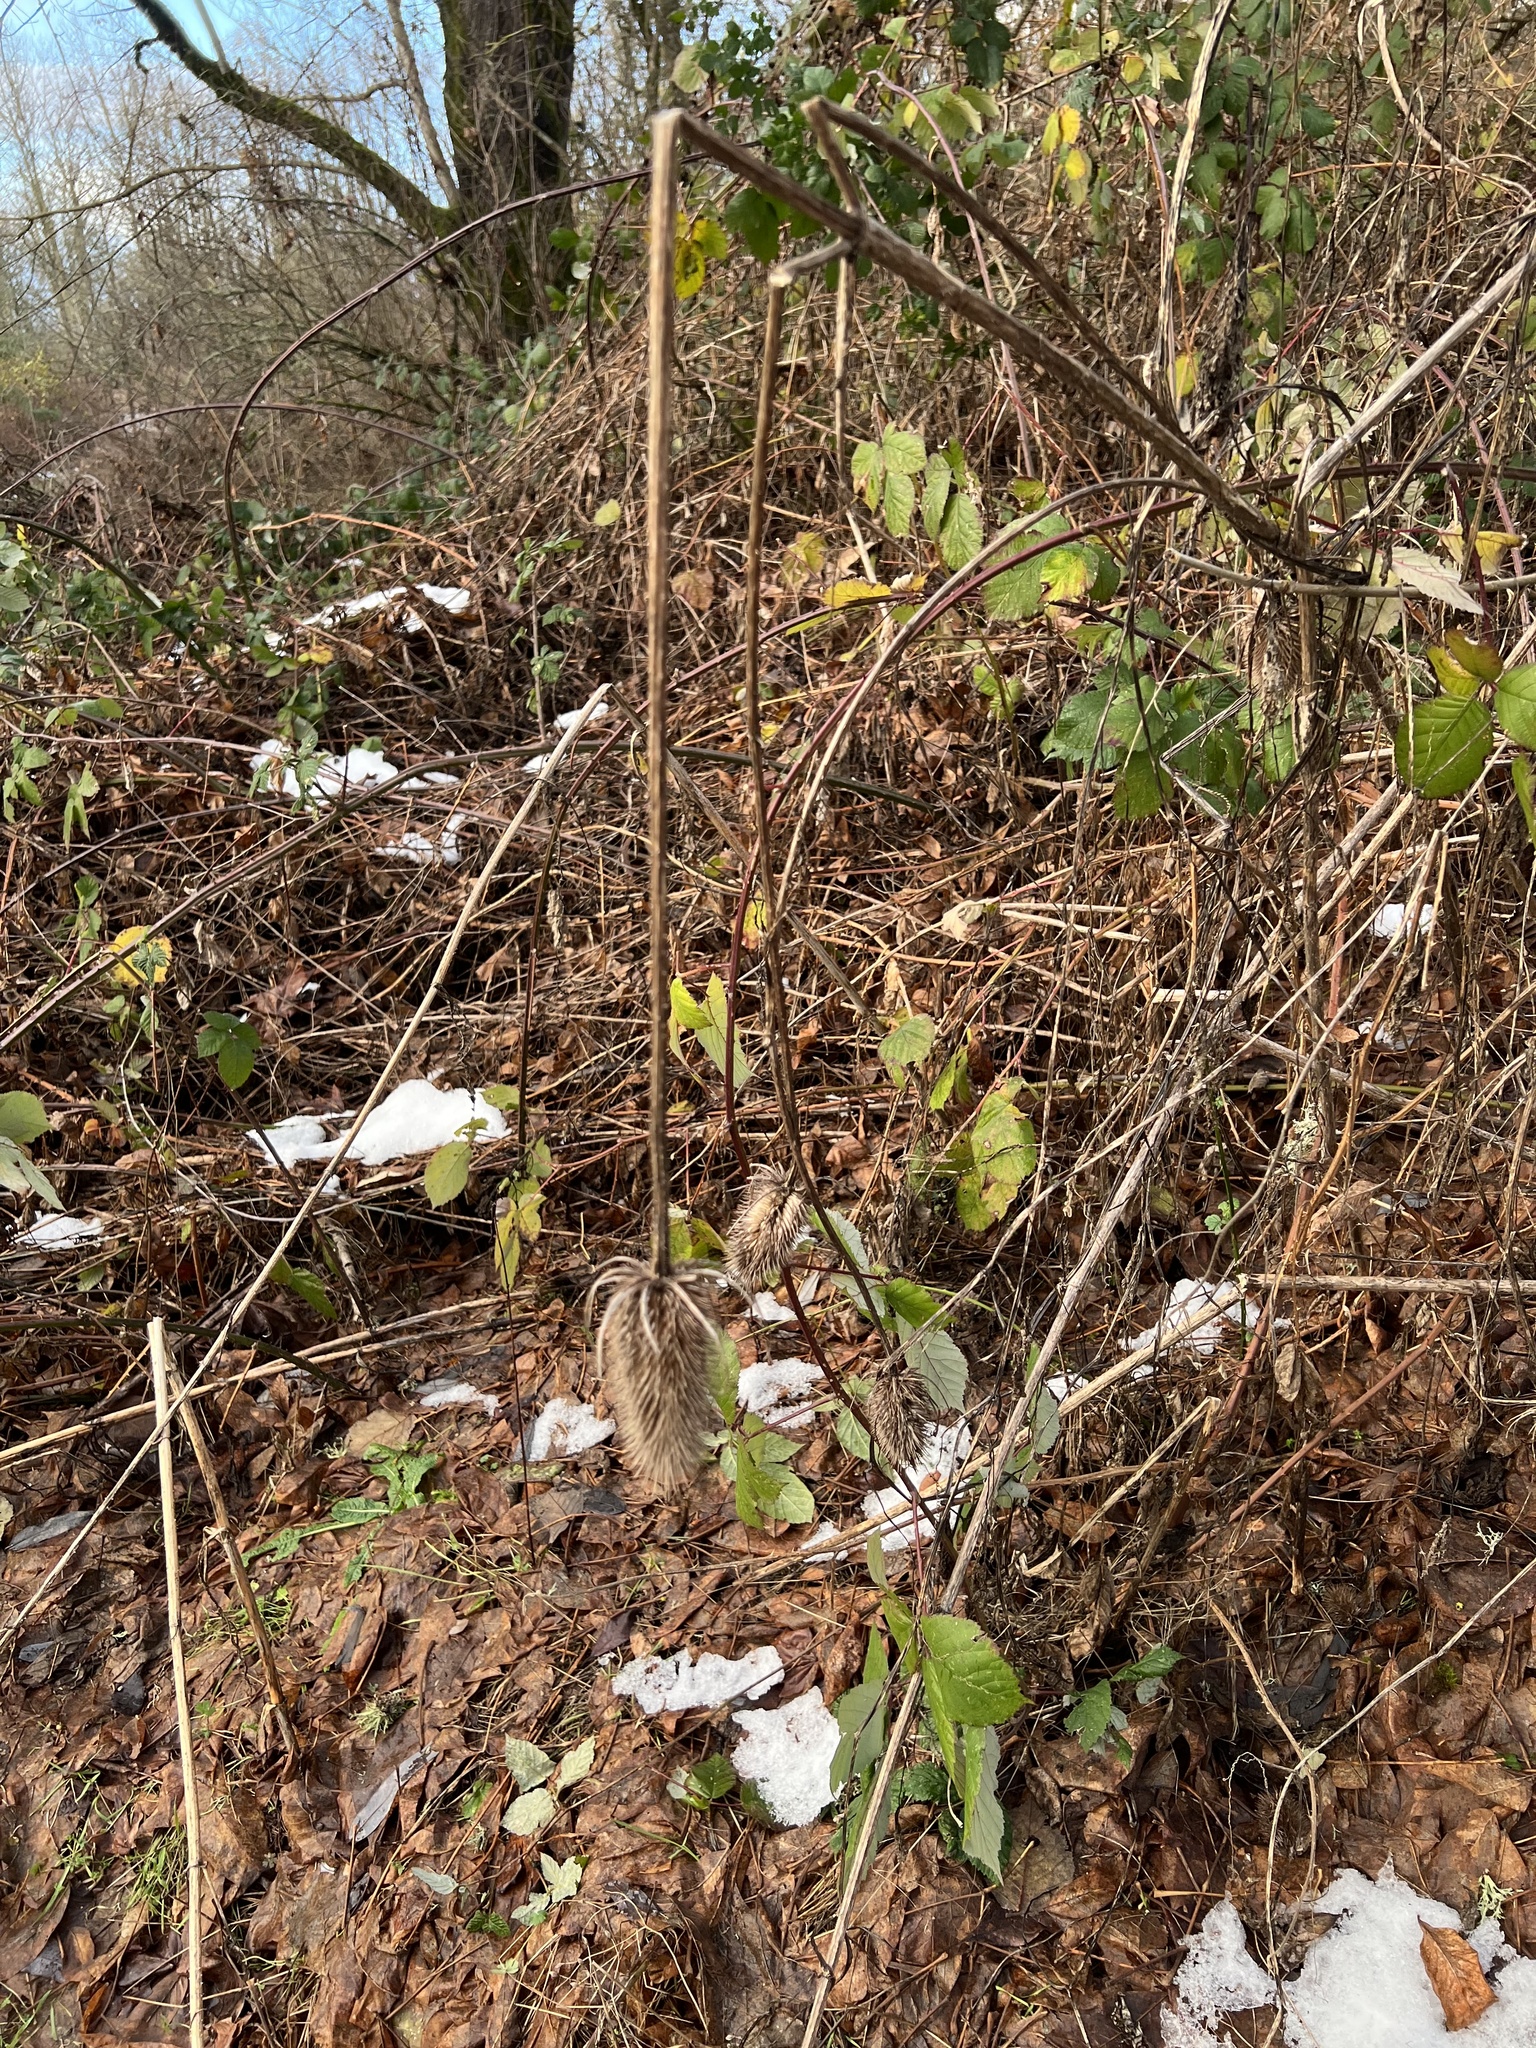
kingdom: Plantae
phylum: Tracheophyta
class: Magnoliopsida
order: Dipsacales
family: Caprifoliaceae
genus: Dipsacus
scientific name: Dipsacus fullonum
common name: Teasel
